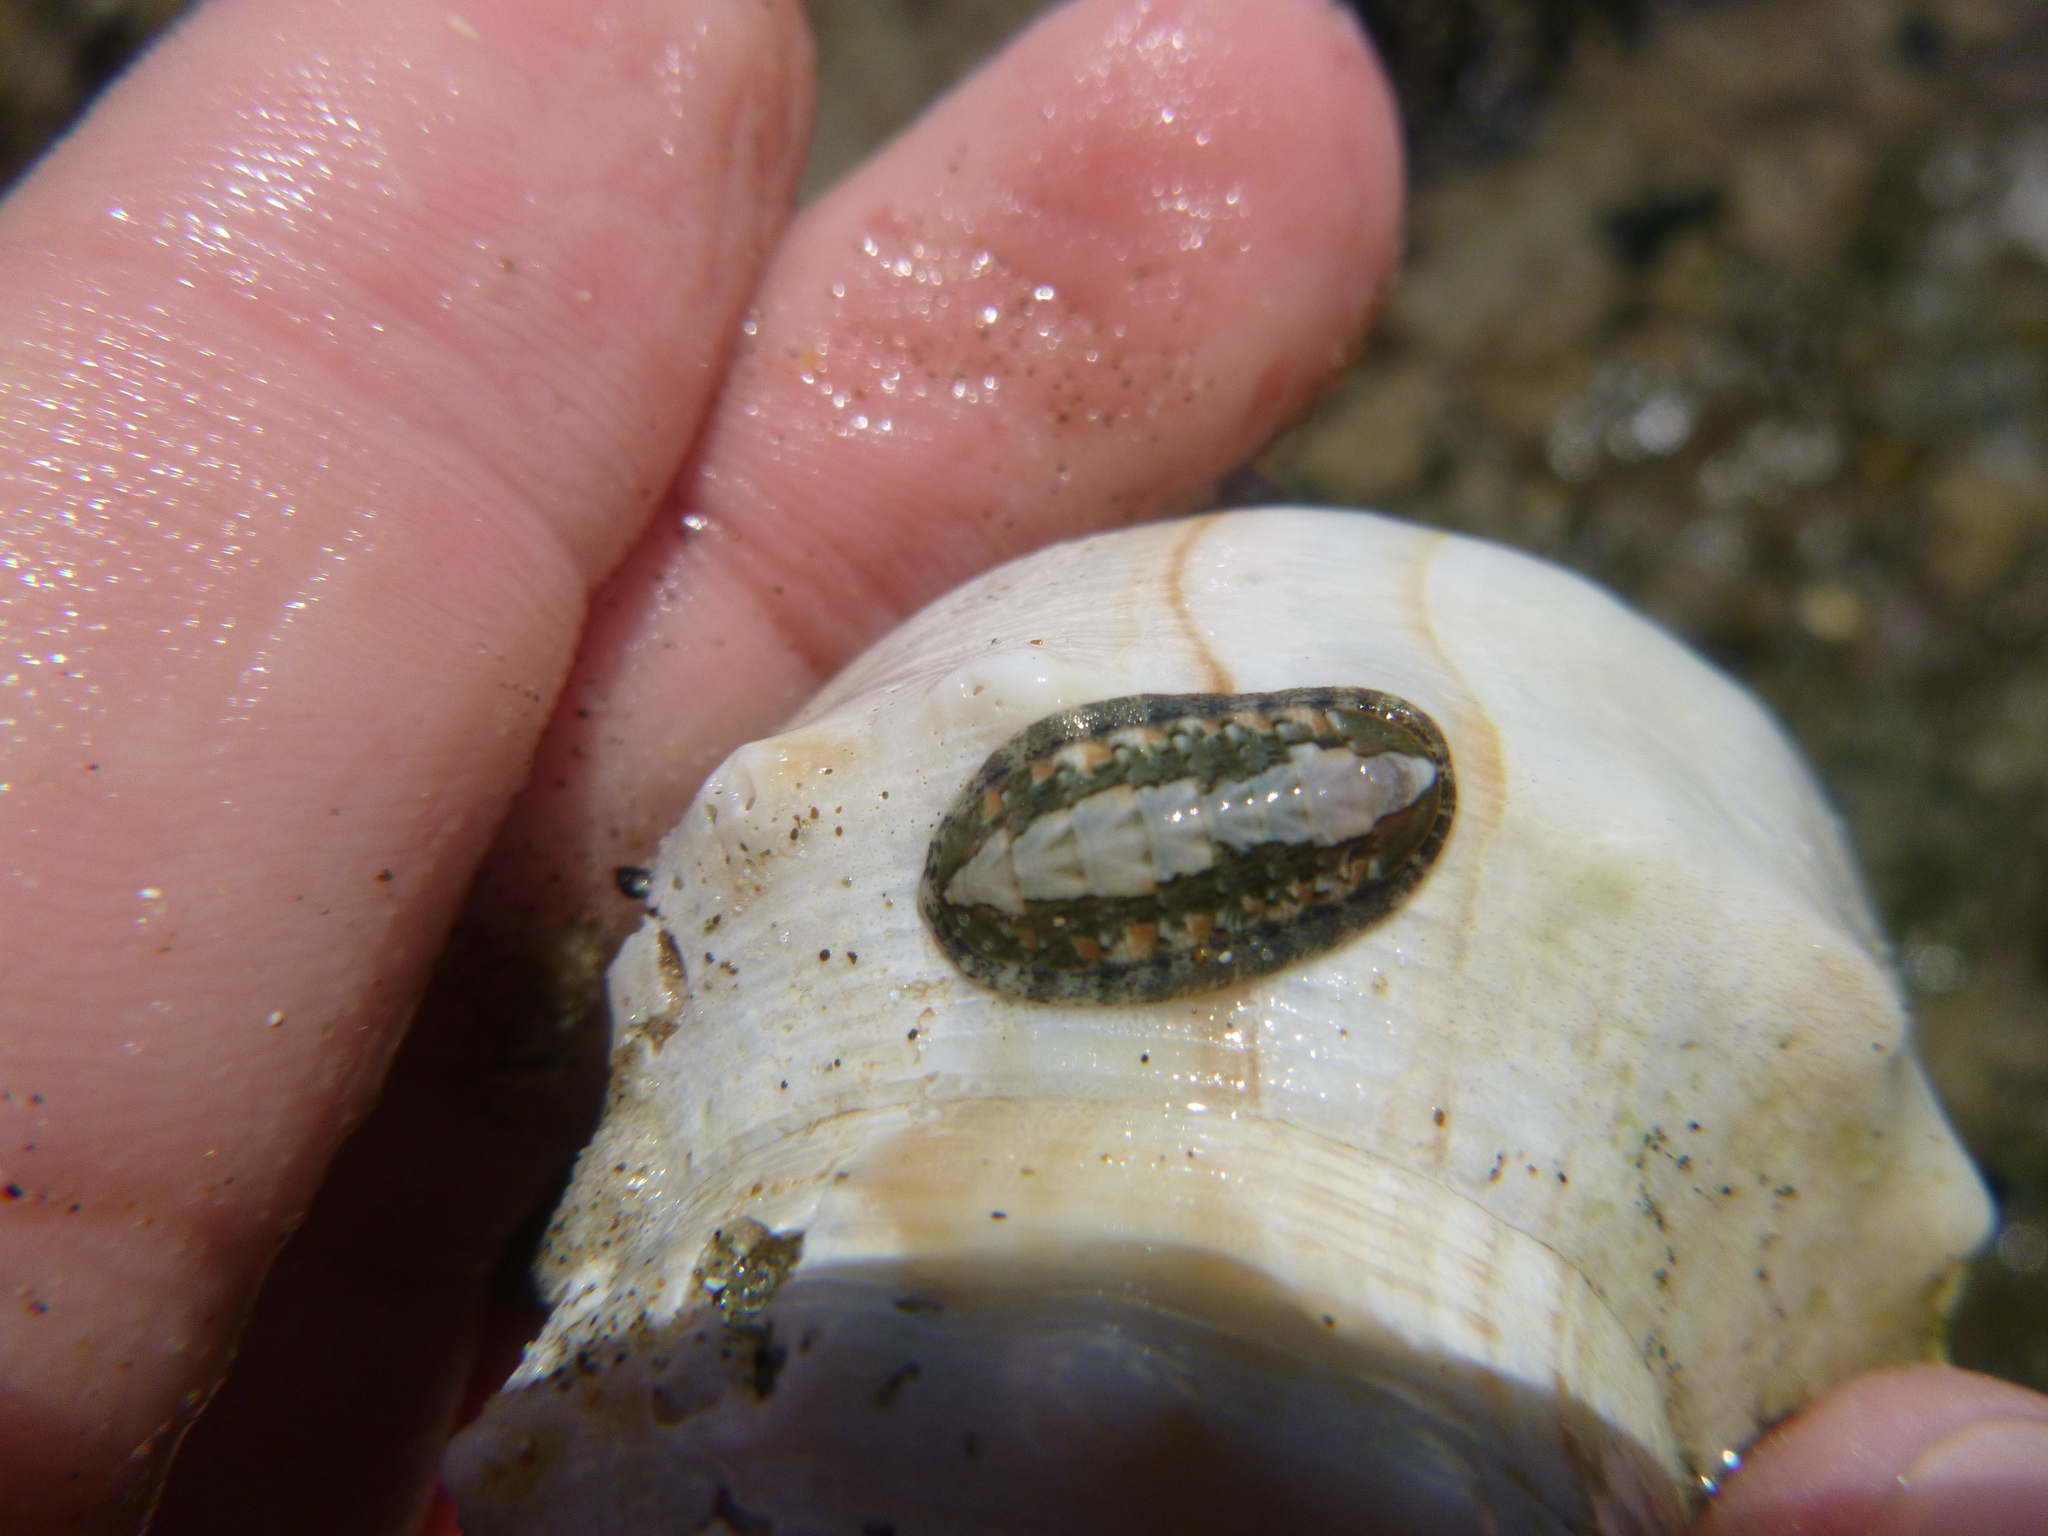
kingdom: Animalia
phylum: Mollusca
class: Polyplacophora
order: Chitonida
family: Ischnochitonidae
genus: Ischnochiton
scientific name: Ischnochiton maorianus
